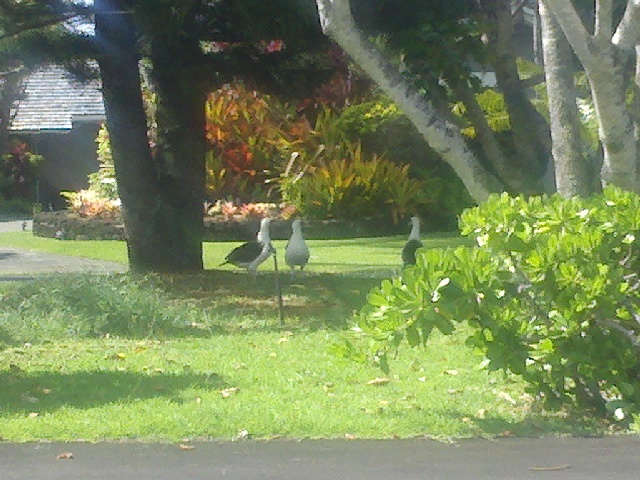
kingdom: Animalia
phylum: Chordata
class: Aves
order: Procellariiformes
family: Diomedeidae
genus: Phoebastria
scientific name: Phoebastria immutabilis
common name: Laysan albatross
